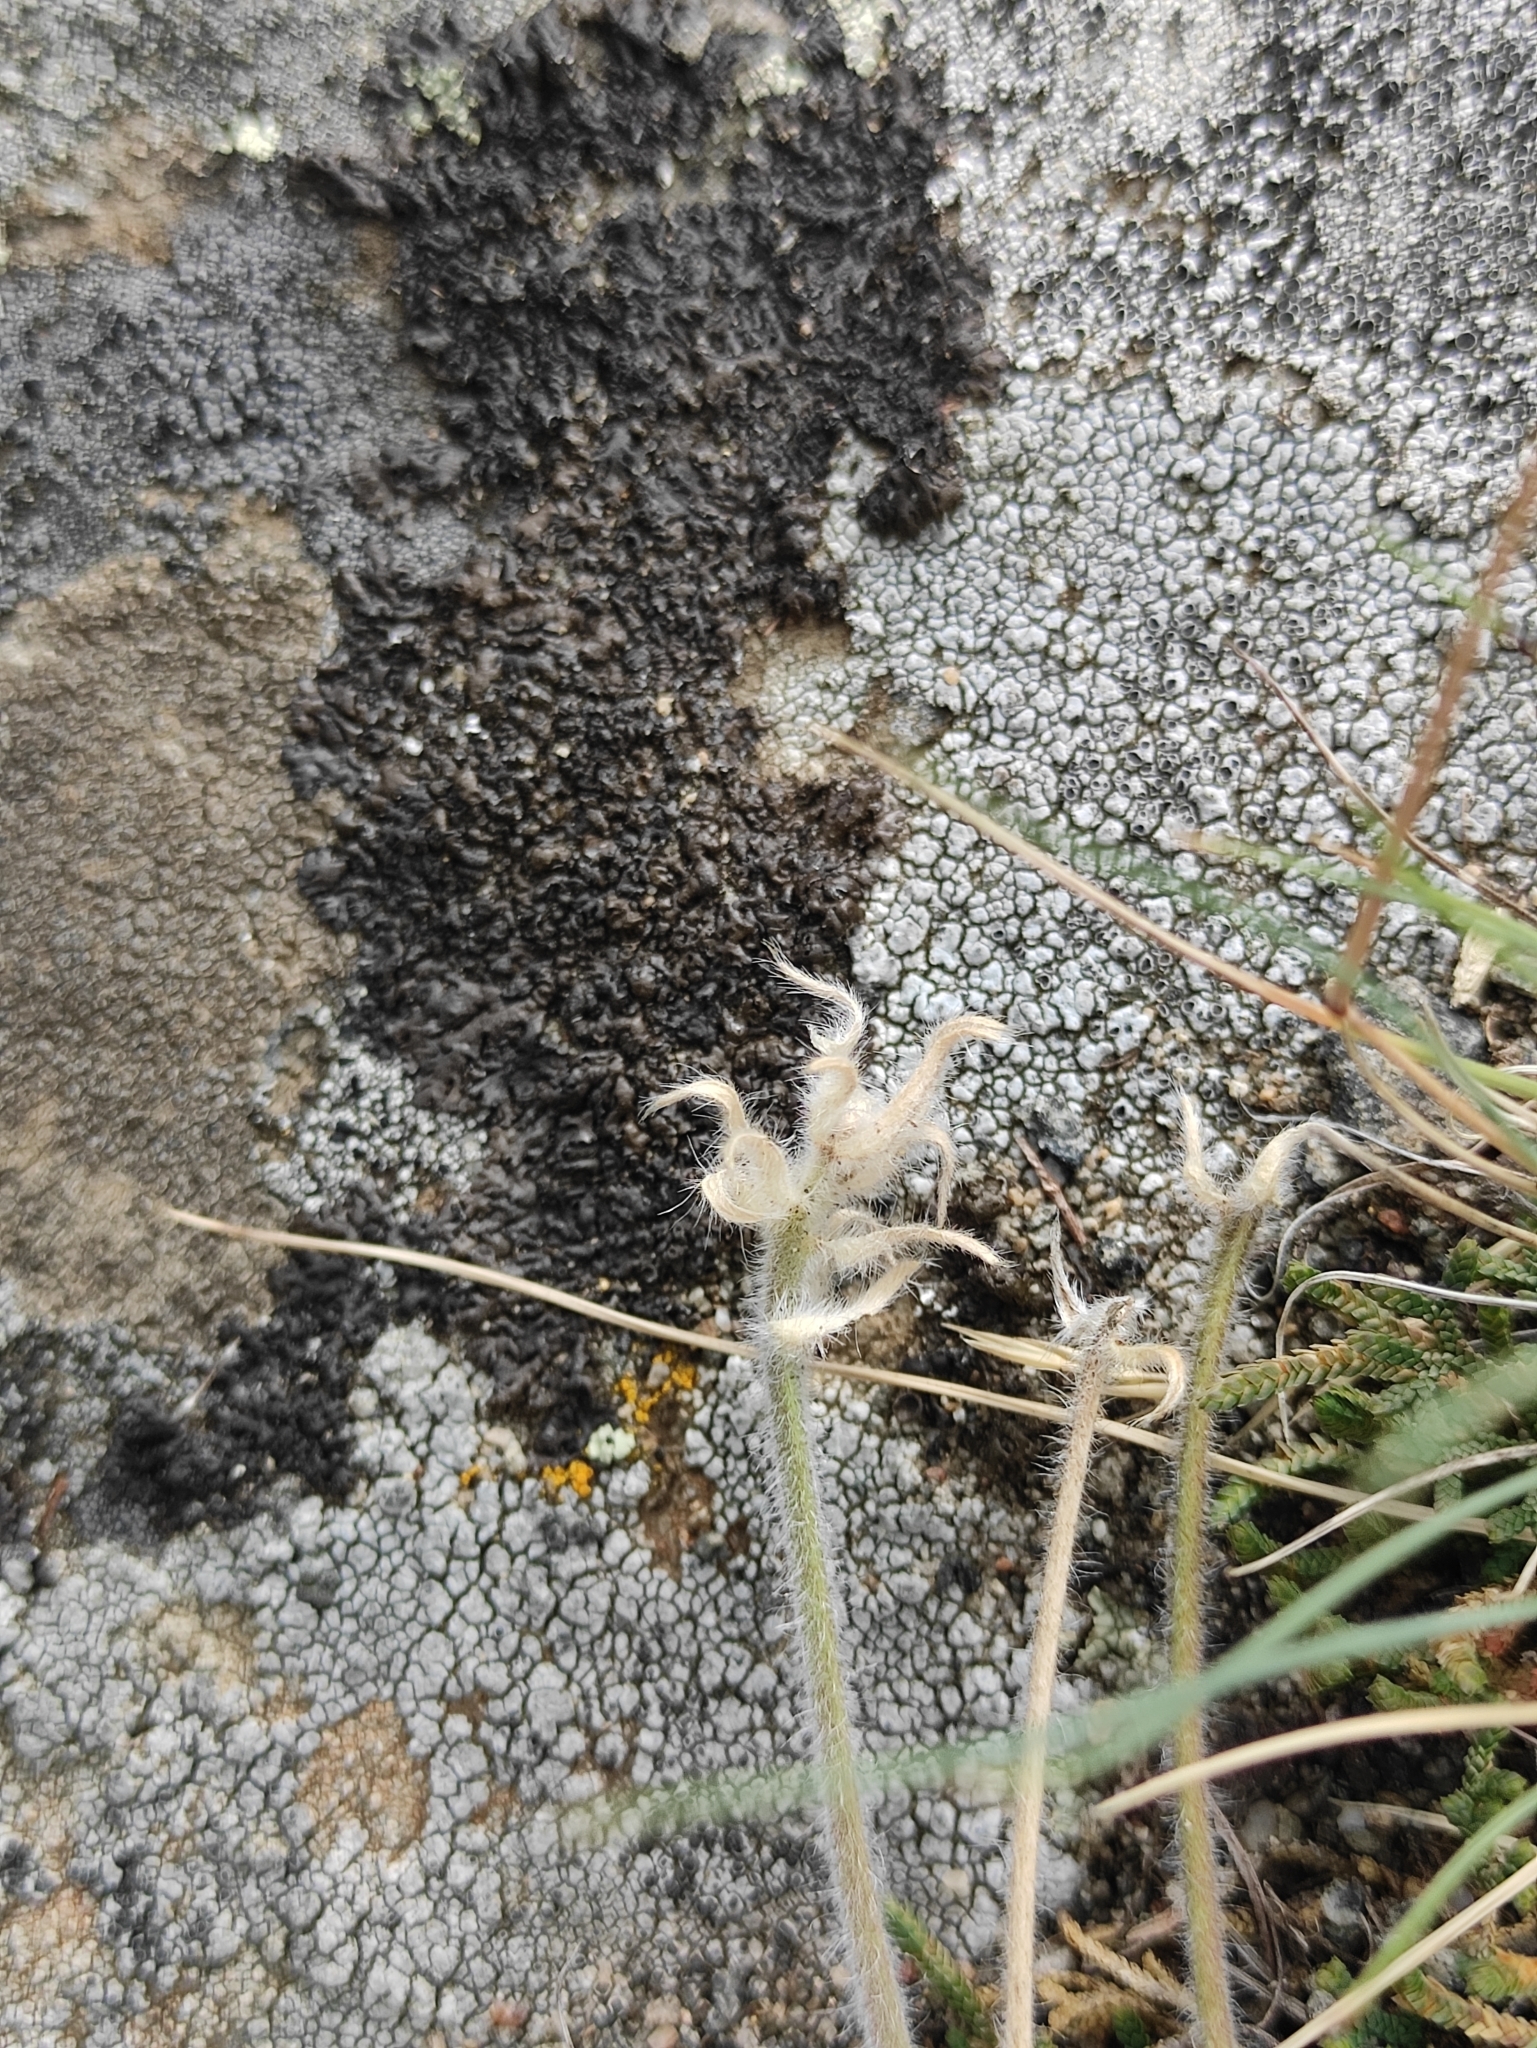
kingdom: Plantae
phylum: Tracheophyta
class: Magnoliopsida
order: Rosales
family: Rosaceae
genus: Potentilla
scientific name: Potentilla sericea
